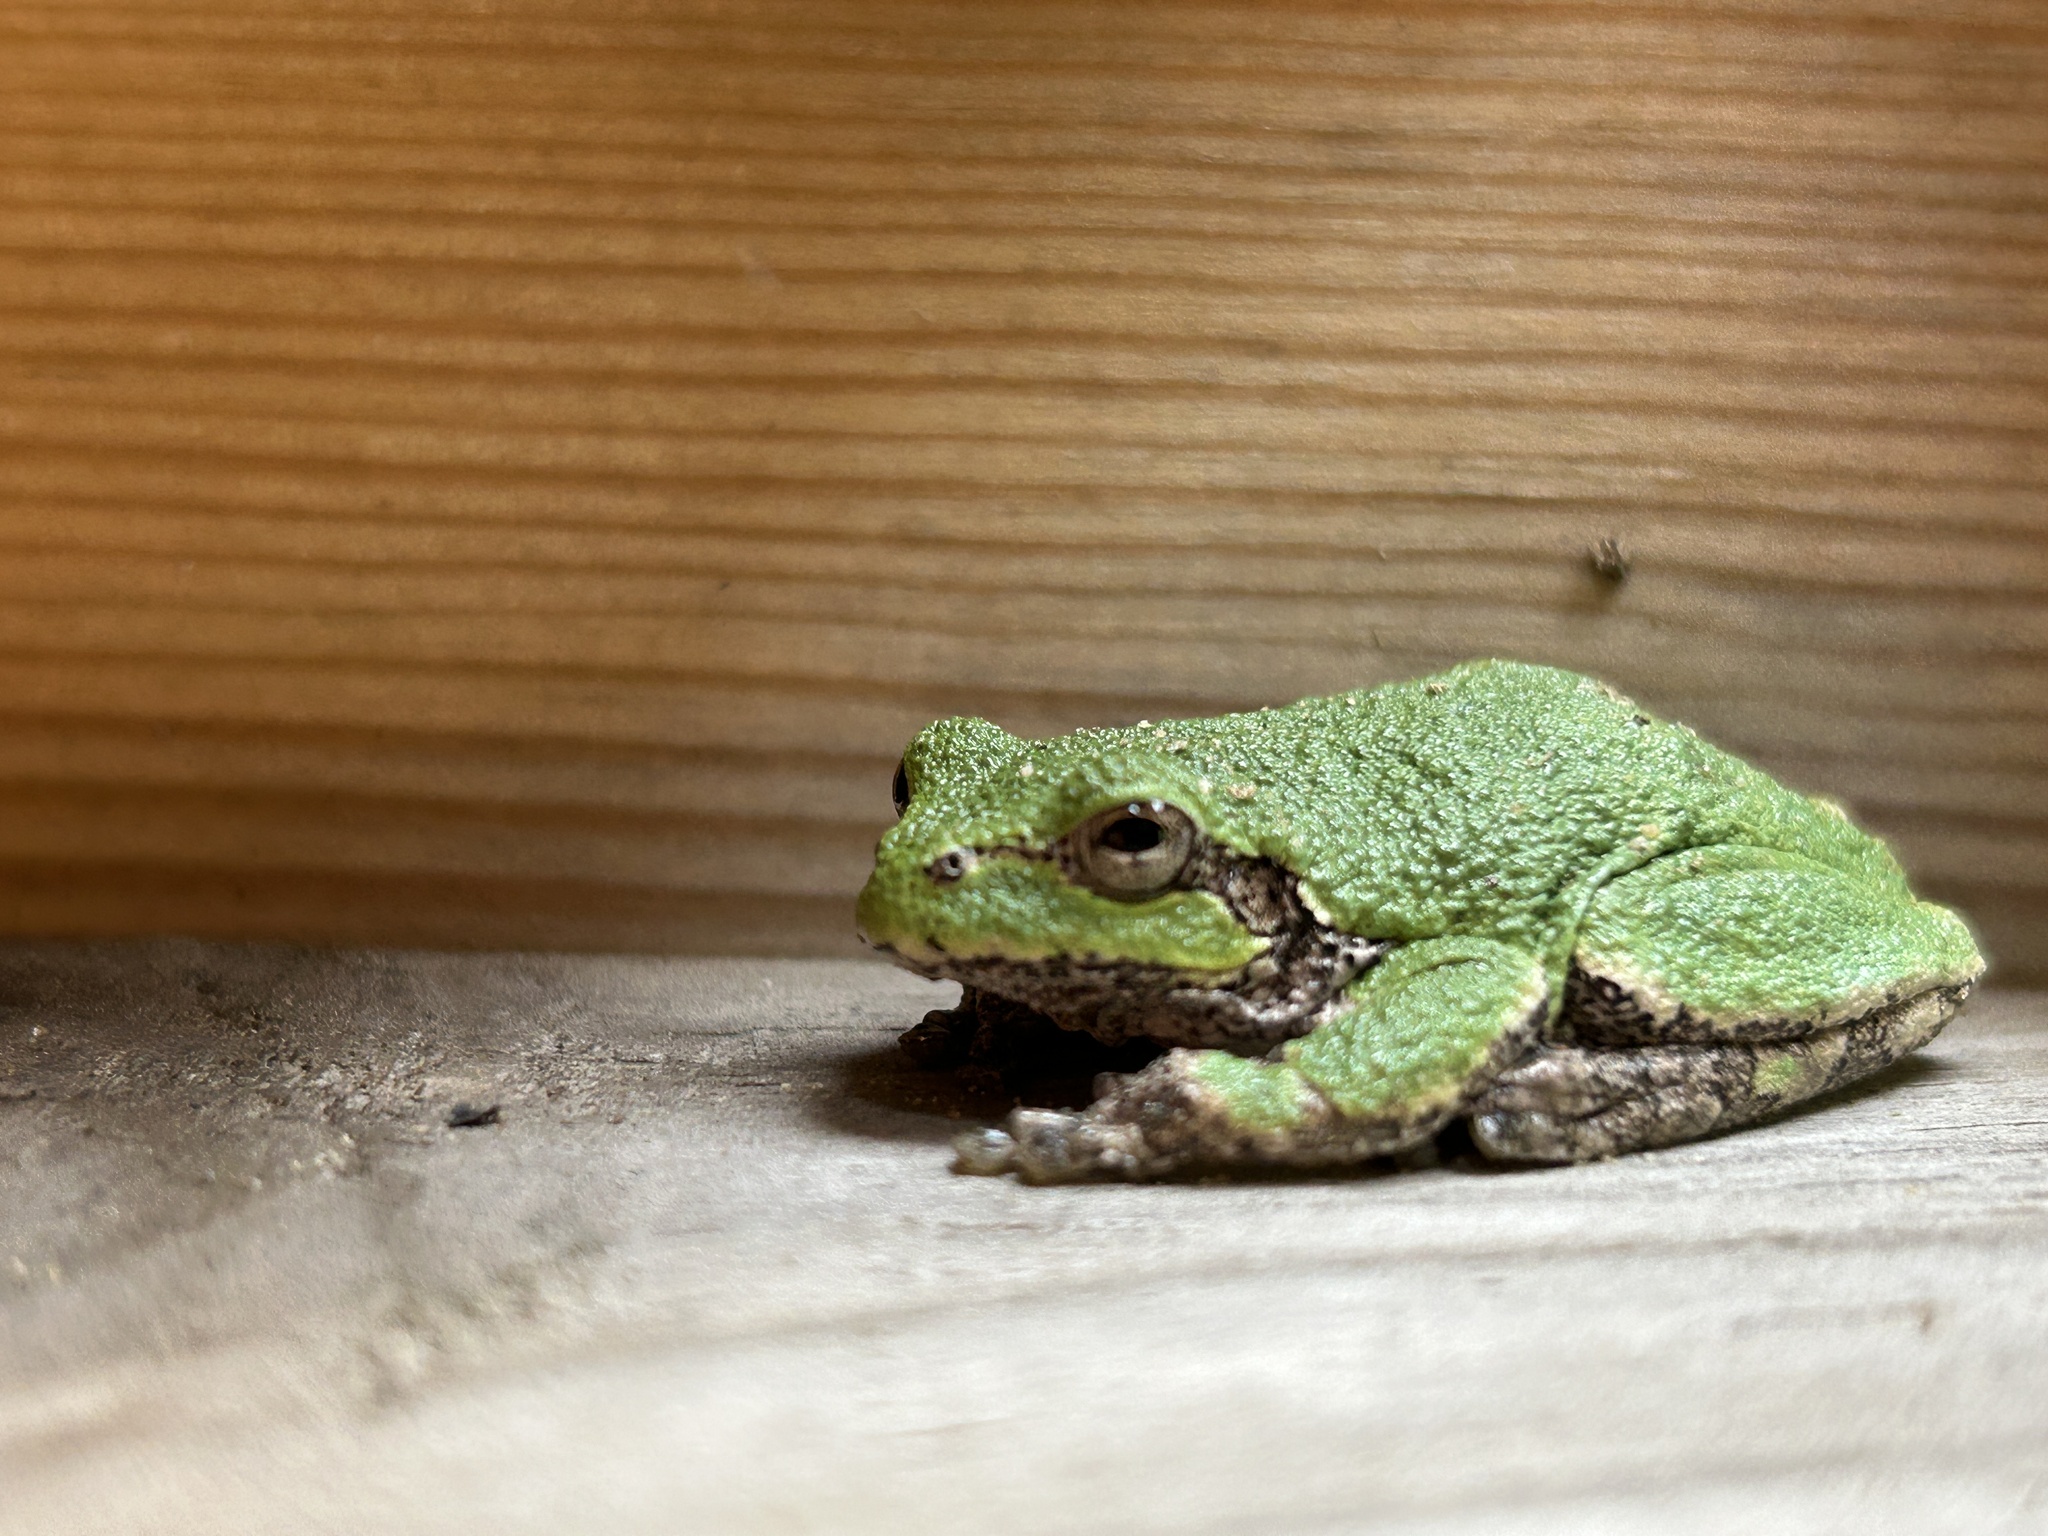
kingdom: Animalia
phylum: Chordata
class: Amphibia
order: Anura
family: Hylidae
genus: Hyla
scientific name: Hyla
